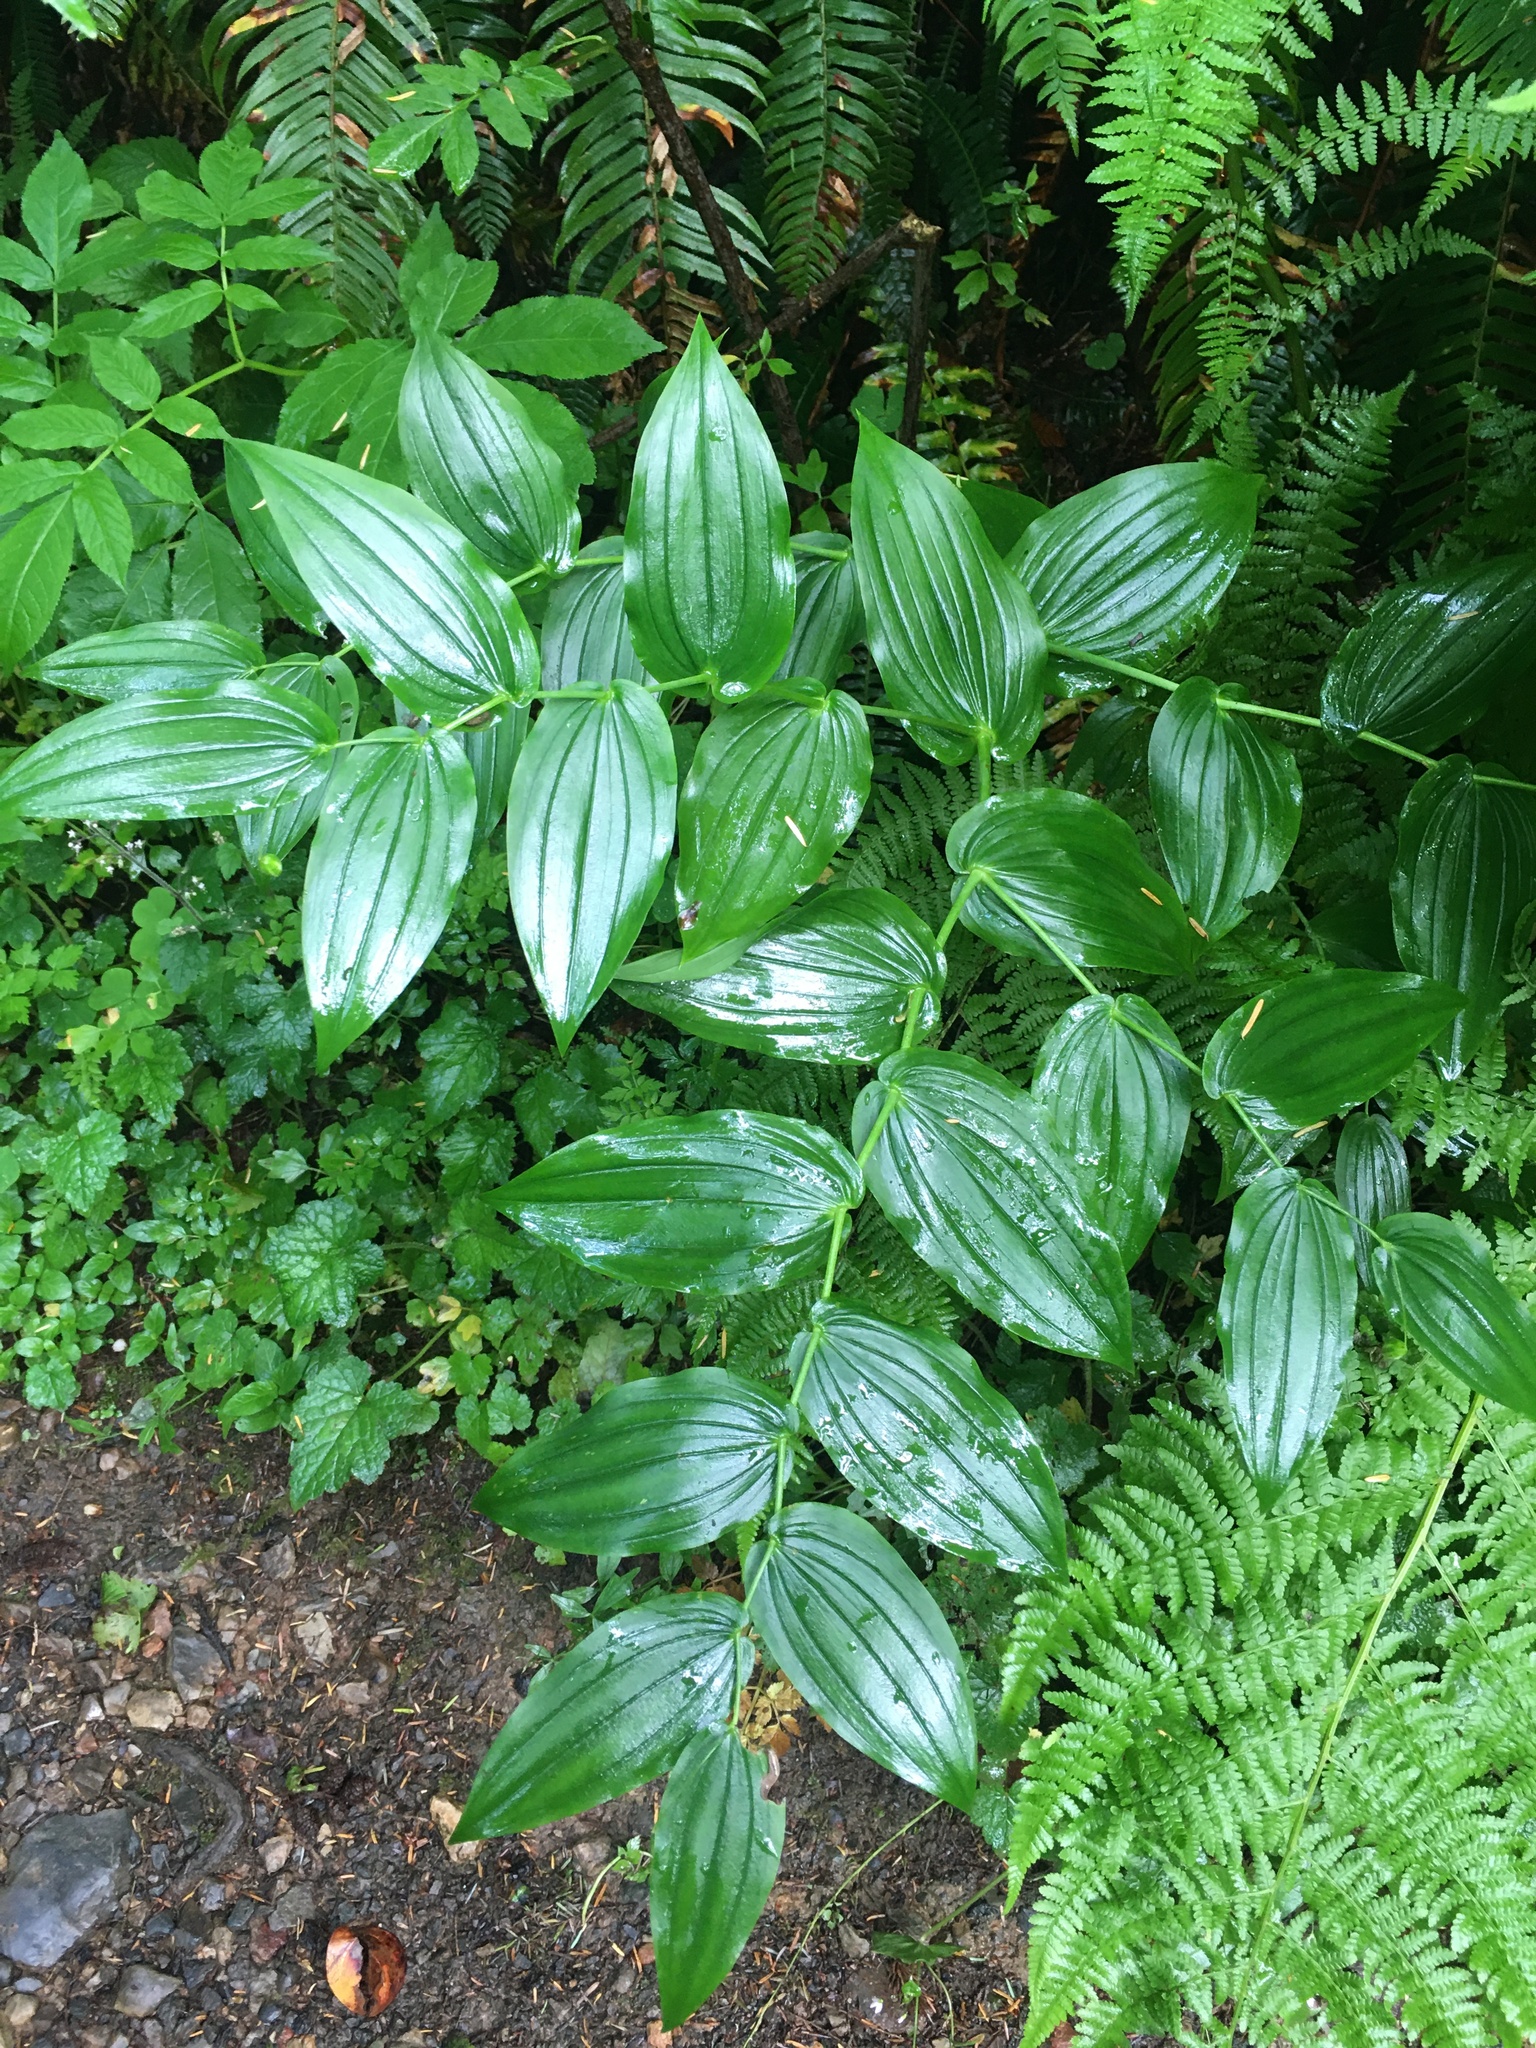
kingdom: Plantae
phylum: Tracheophyta
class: Liliopsida
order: Liliales
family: Liliaceae
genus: Streptopus
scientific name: Streptopus amplexifolius
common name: Clasp twisted stalk
